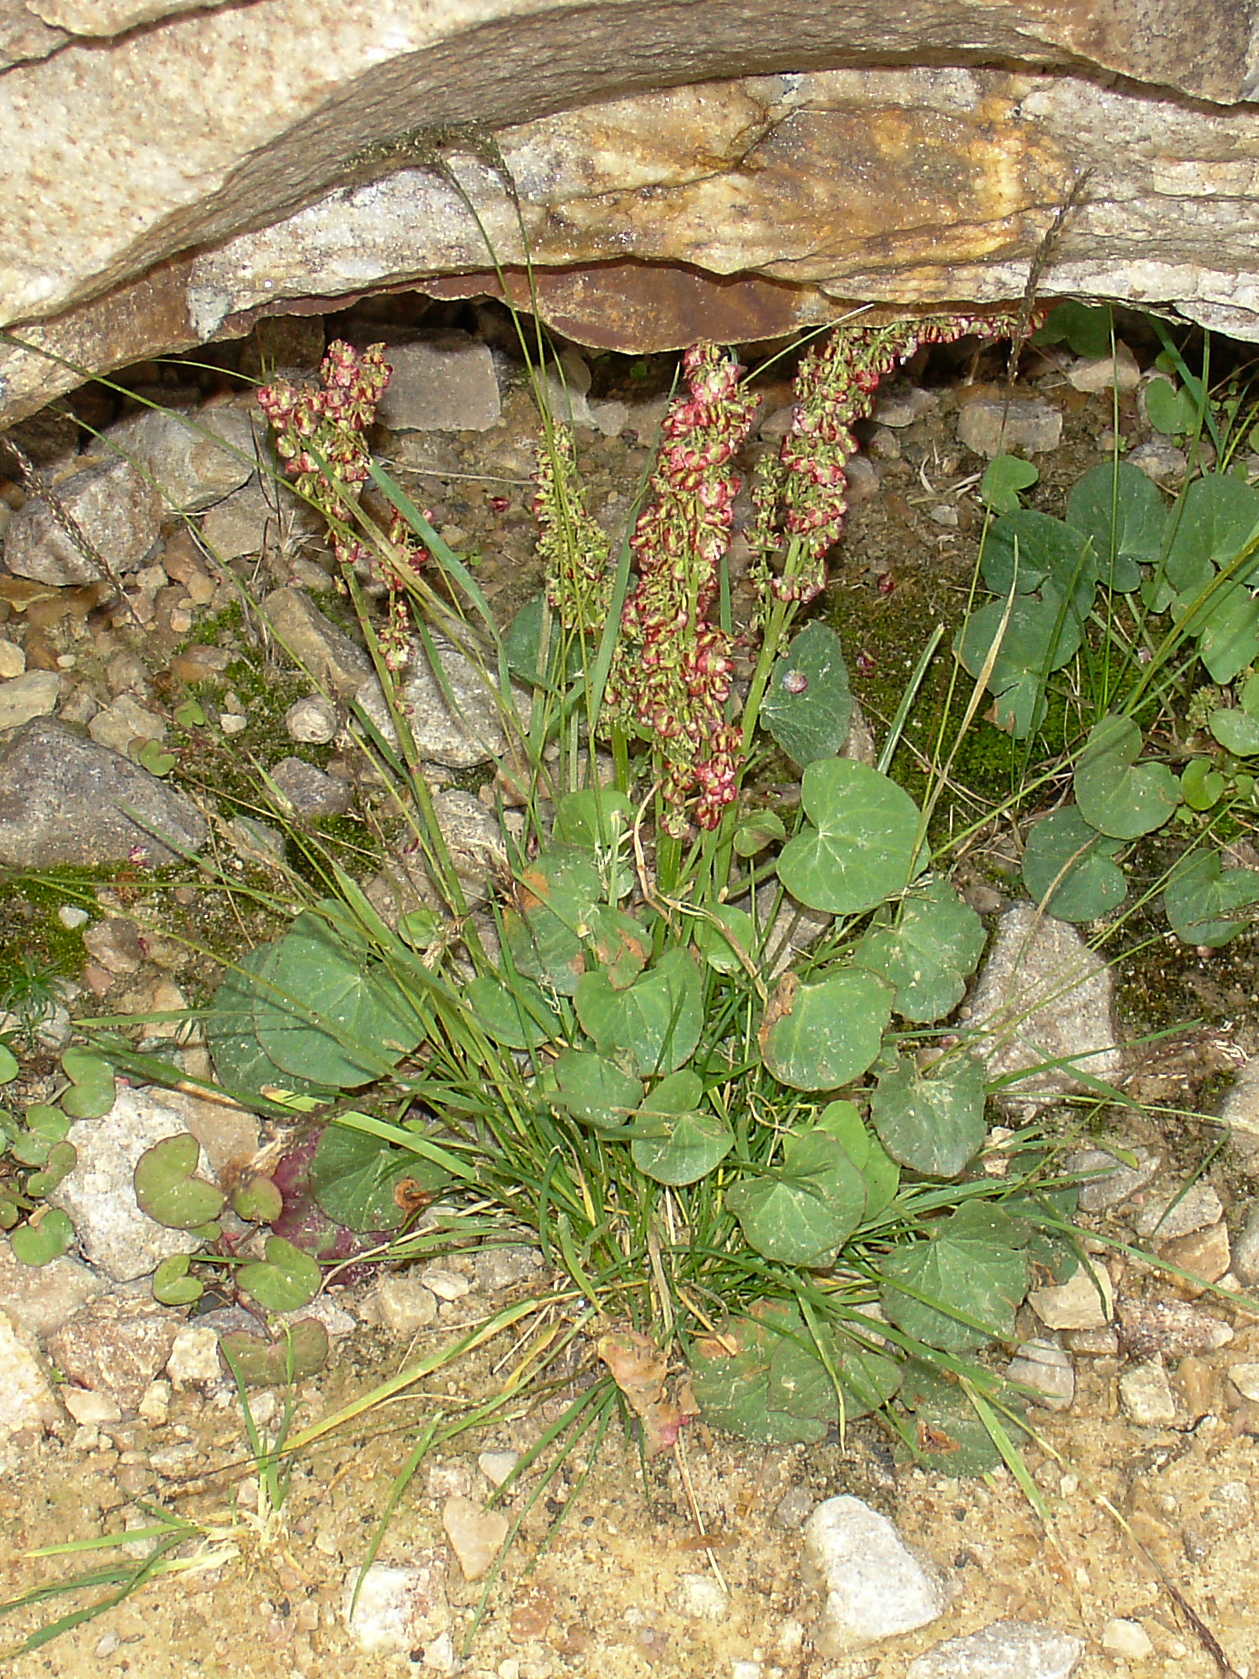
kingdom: Plantae
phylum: Tracheophyta
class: Magnoliopsida
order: Caryophyllales
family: Polygonaceae
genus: Oxyria
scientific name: Oxyria digyna
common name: Alpine mountain-sorrel
